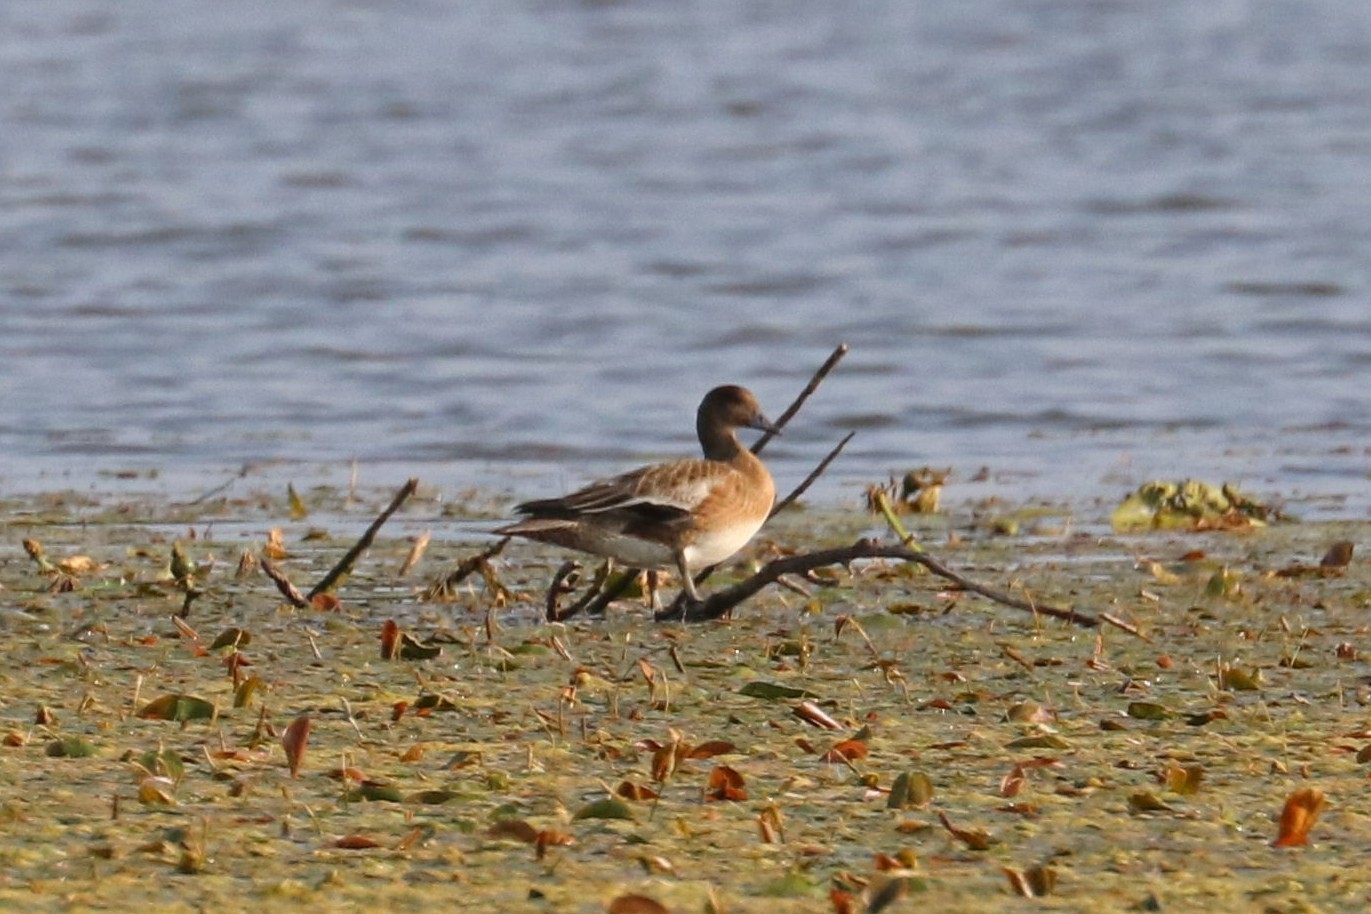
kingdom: Animalia
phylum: Chordata
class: Aves
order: Anseriformes
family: Anatidae
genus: Mareca
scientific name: Mareca penelope
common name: Eurasian wigeon
